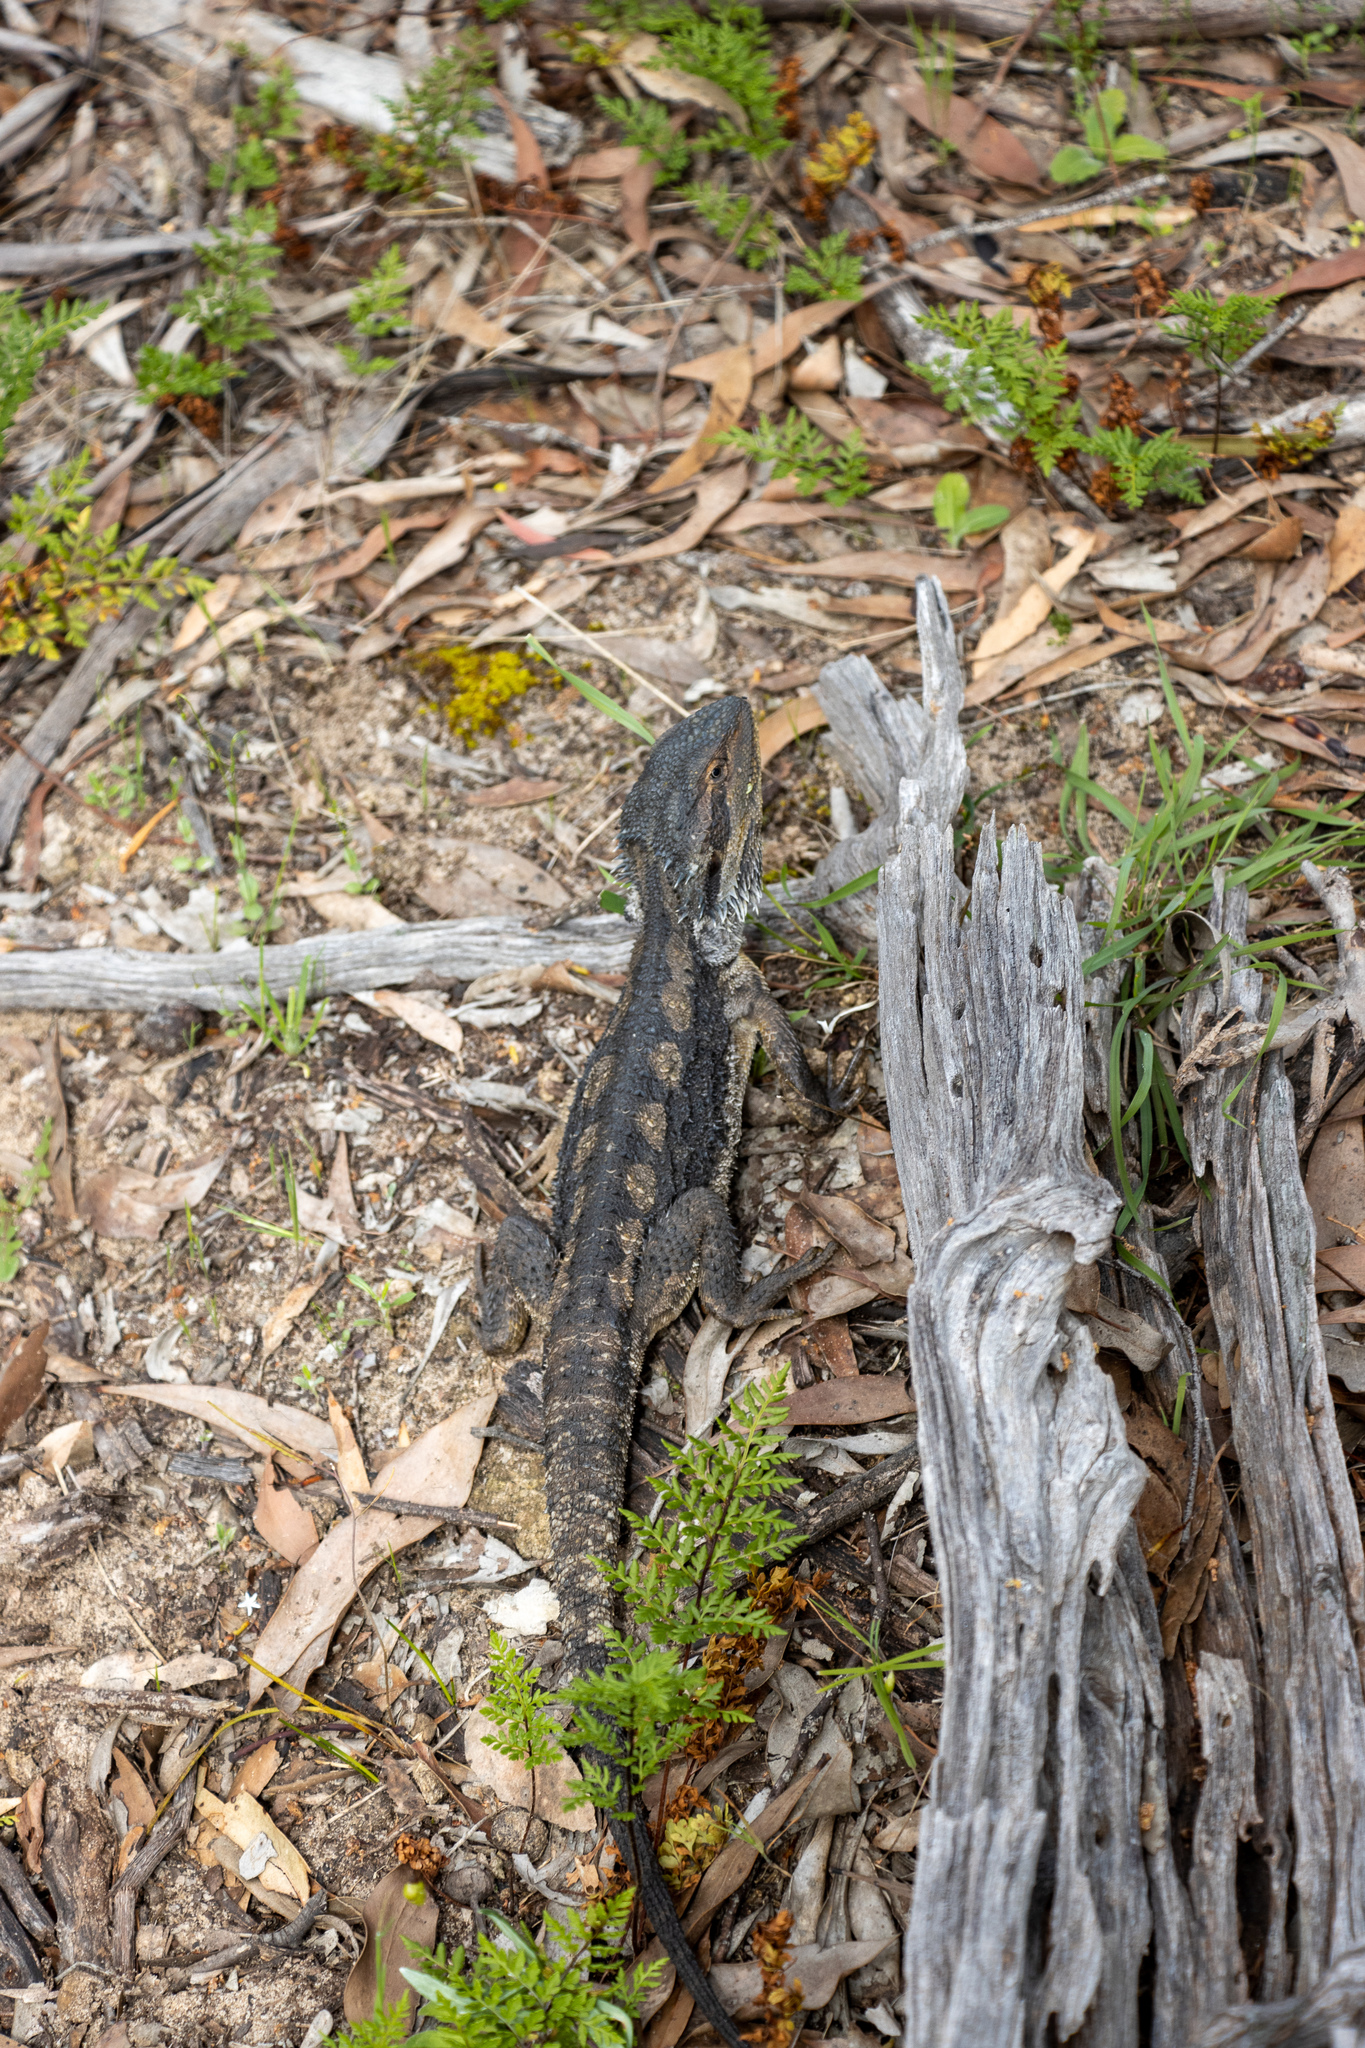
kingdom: Animalia
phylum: Chordata
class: Squamata
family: Agamidae
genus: Pogona
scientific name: Pogona barbata
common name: Bearded dragon
